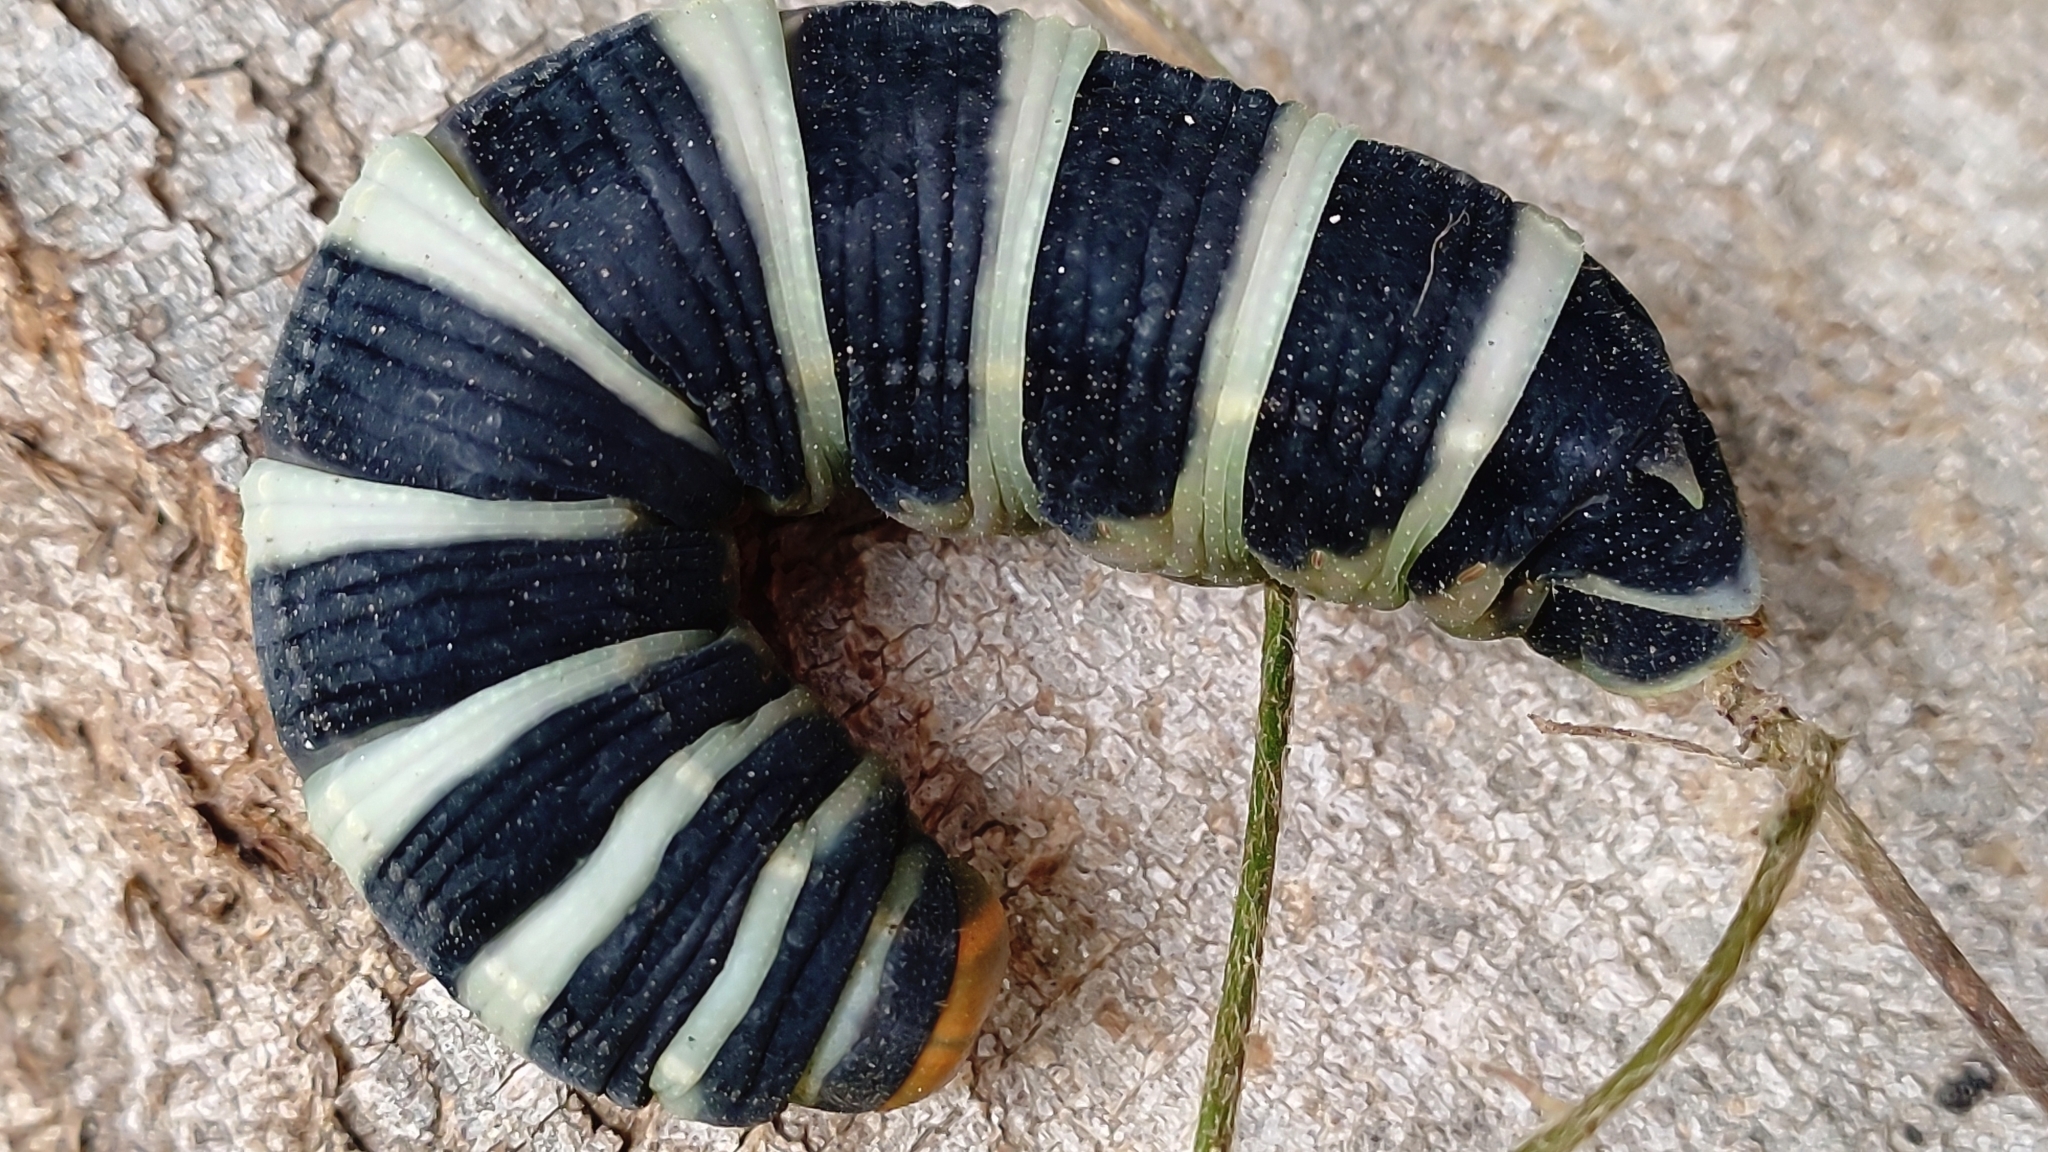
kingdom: Animalia
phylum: Arthropoda
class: Insecta
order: Lepidoptera
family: Sphingidae
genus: Pachylia
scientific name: Pachylia syces
